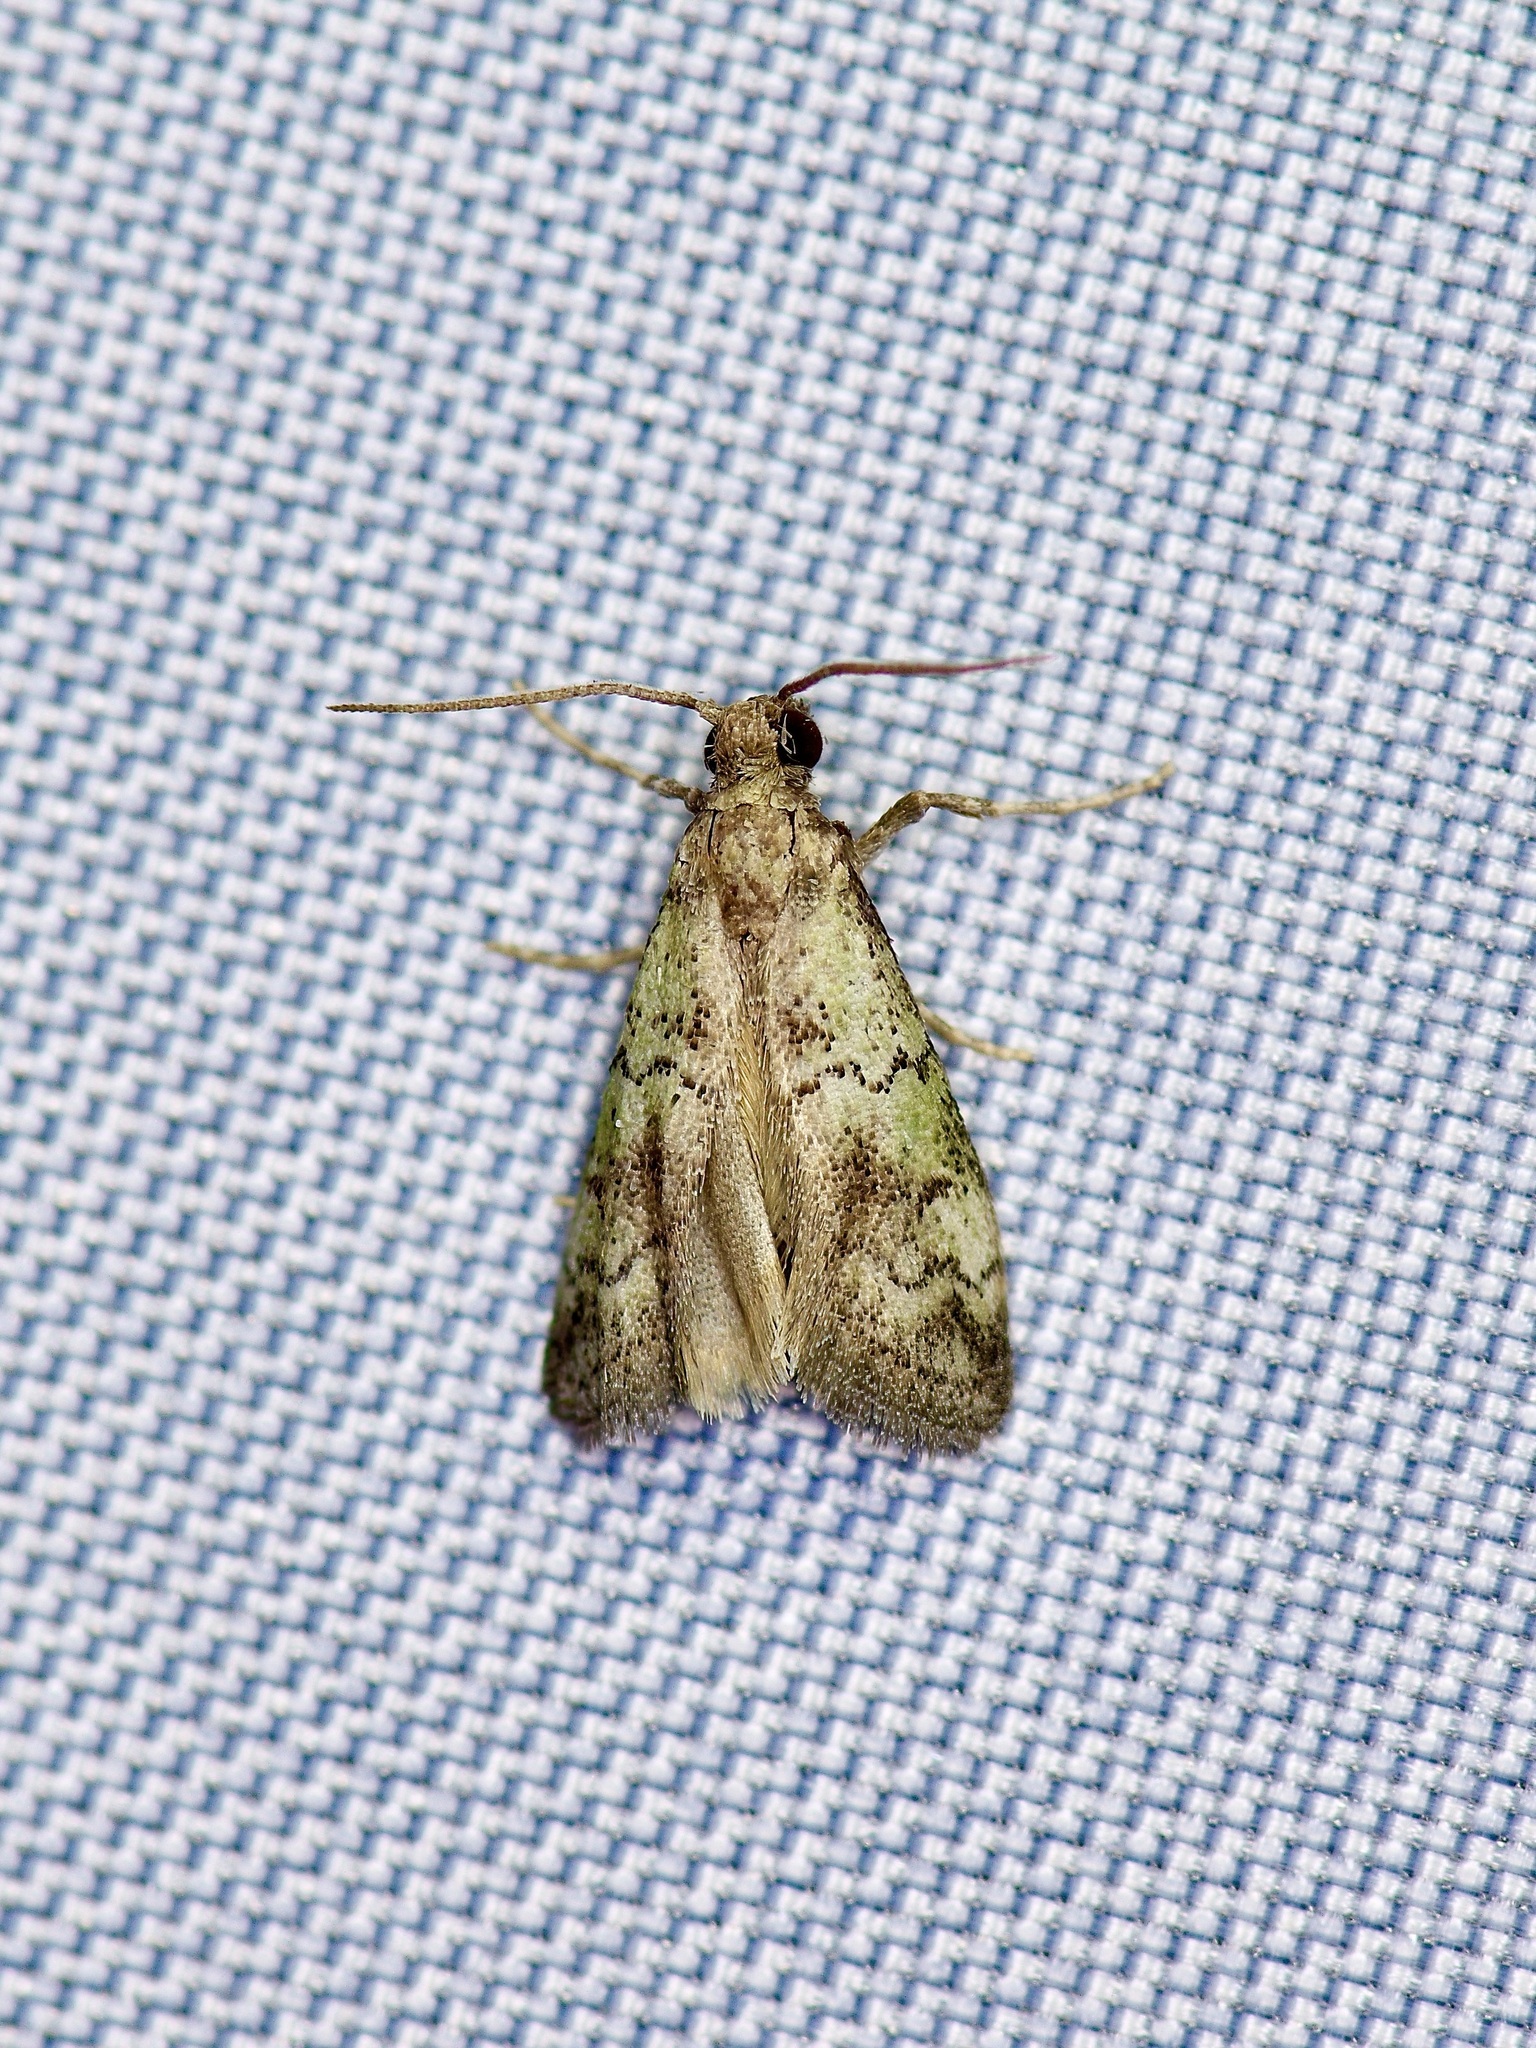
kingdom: Animalia
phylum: Arthropoda
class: Insecta
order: Lepidoptera
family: Pyralidae
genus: Cacotherapia
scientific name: Cacotherapia flexilinealis
